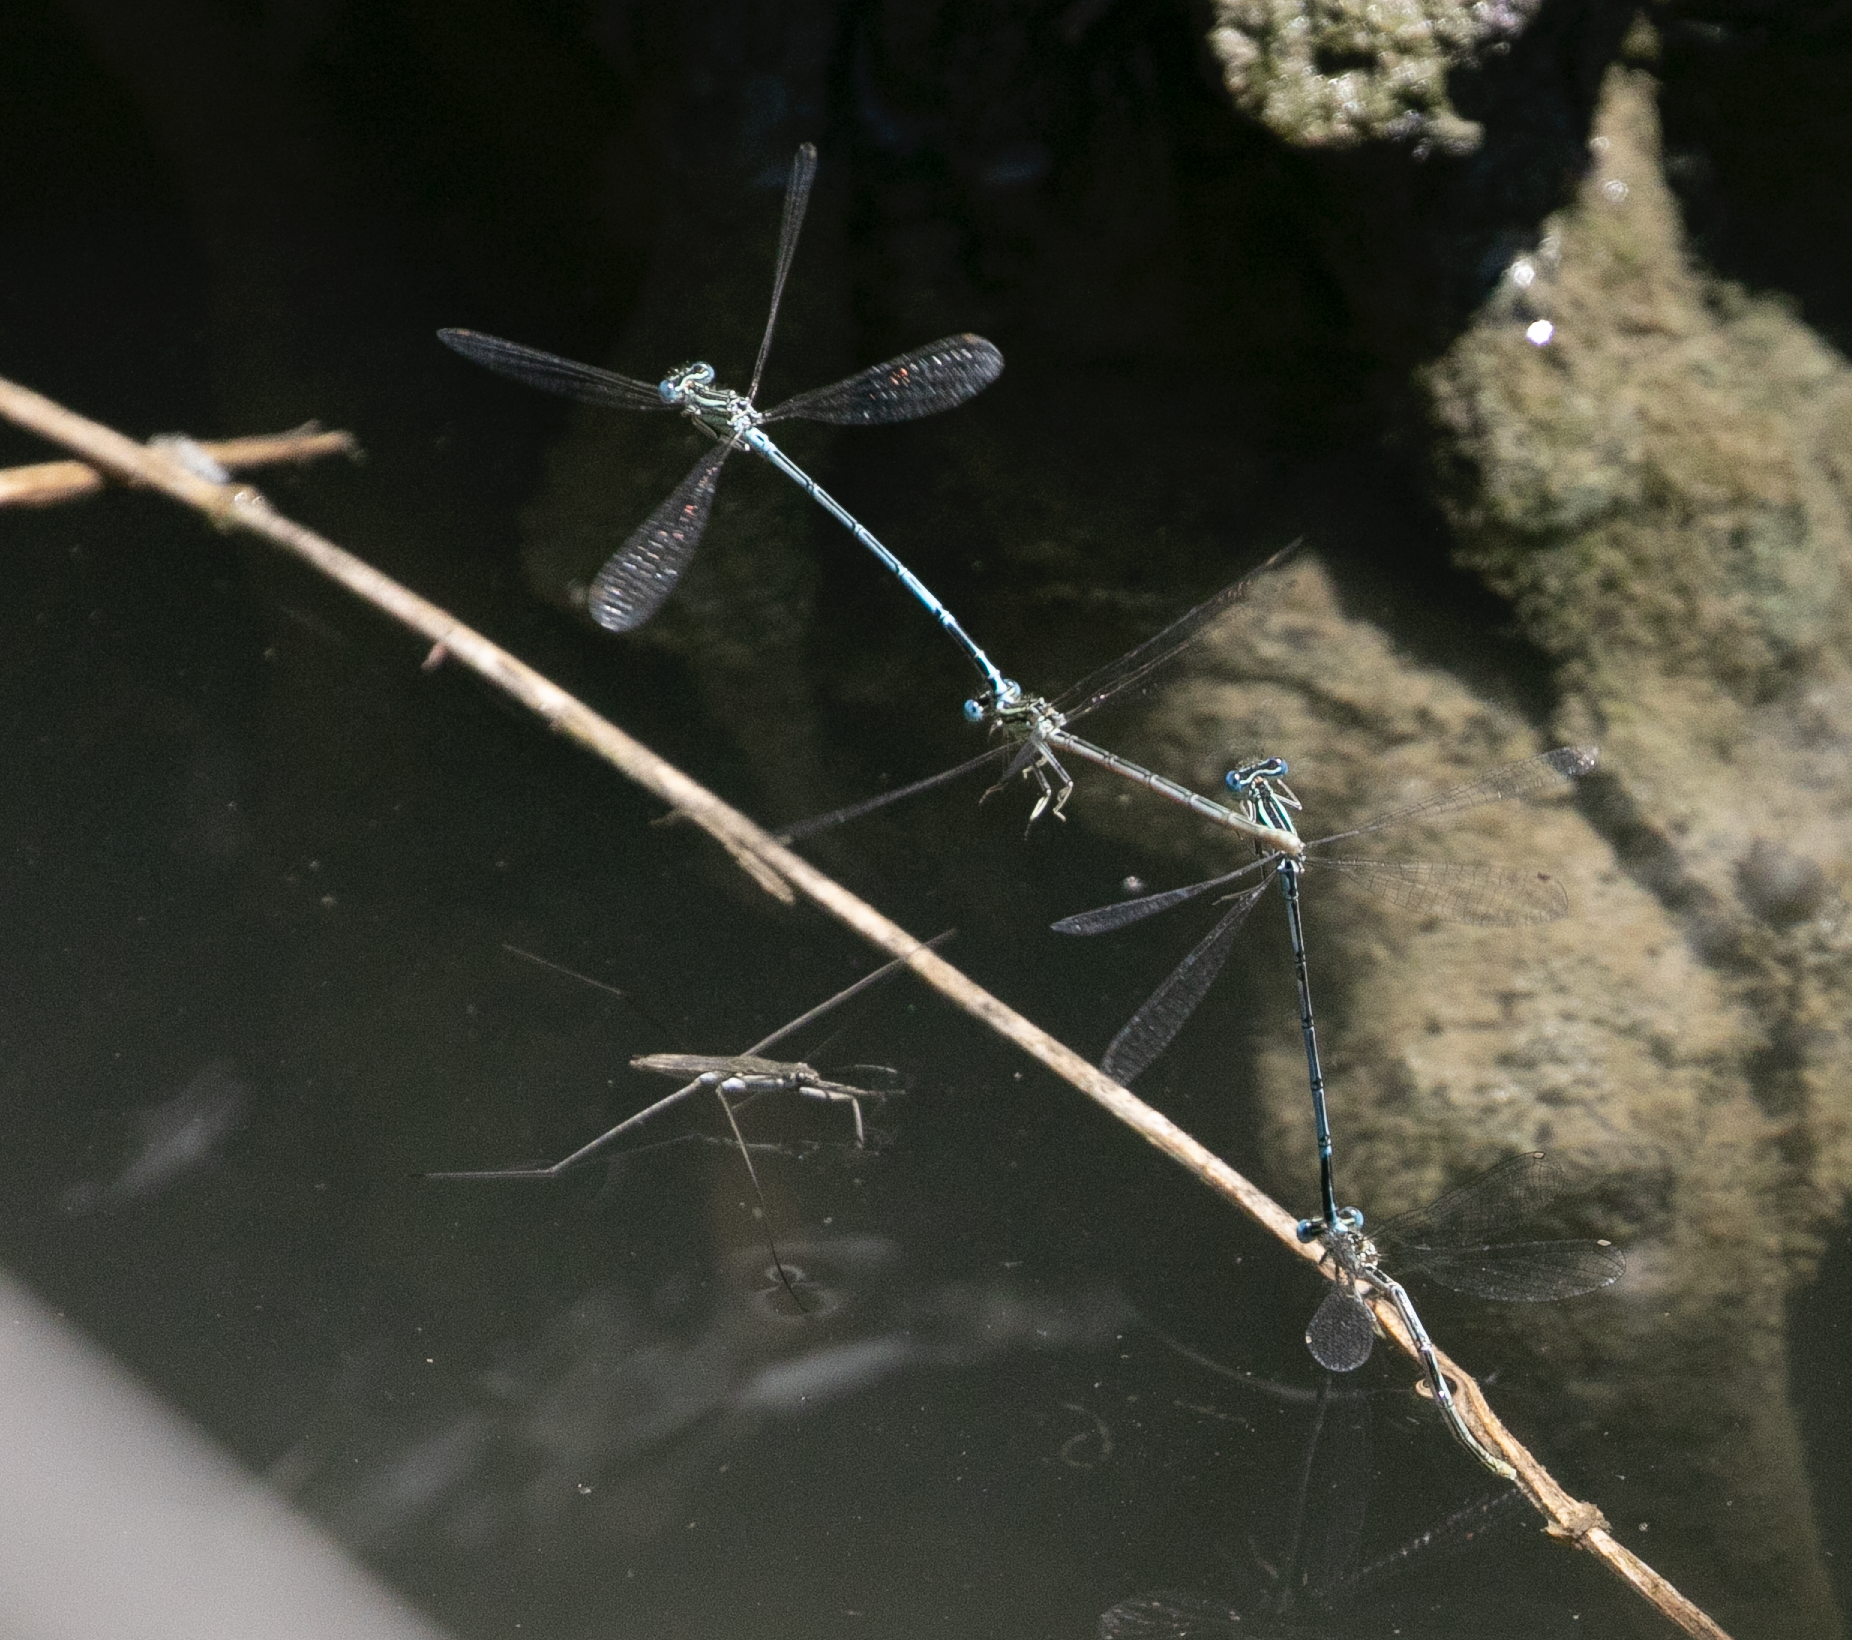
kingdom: Animalia
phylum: Arthropoda
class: Insecta
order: Odonata
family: Platycnemididae
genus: Platycnemis
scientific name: Platycnemis pennipes
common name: White-legged damselfly
